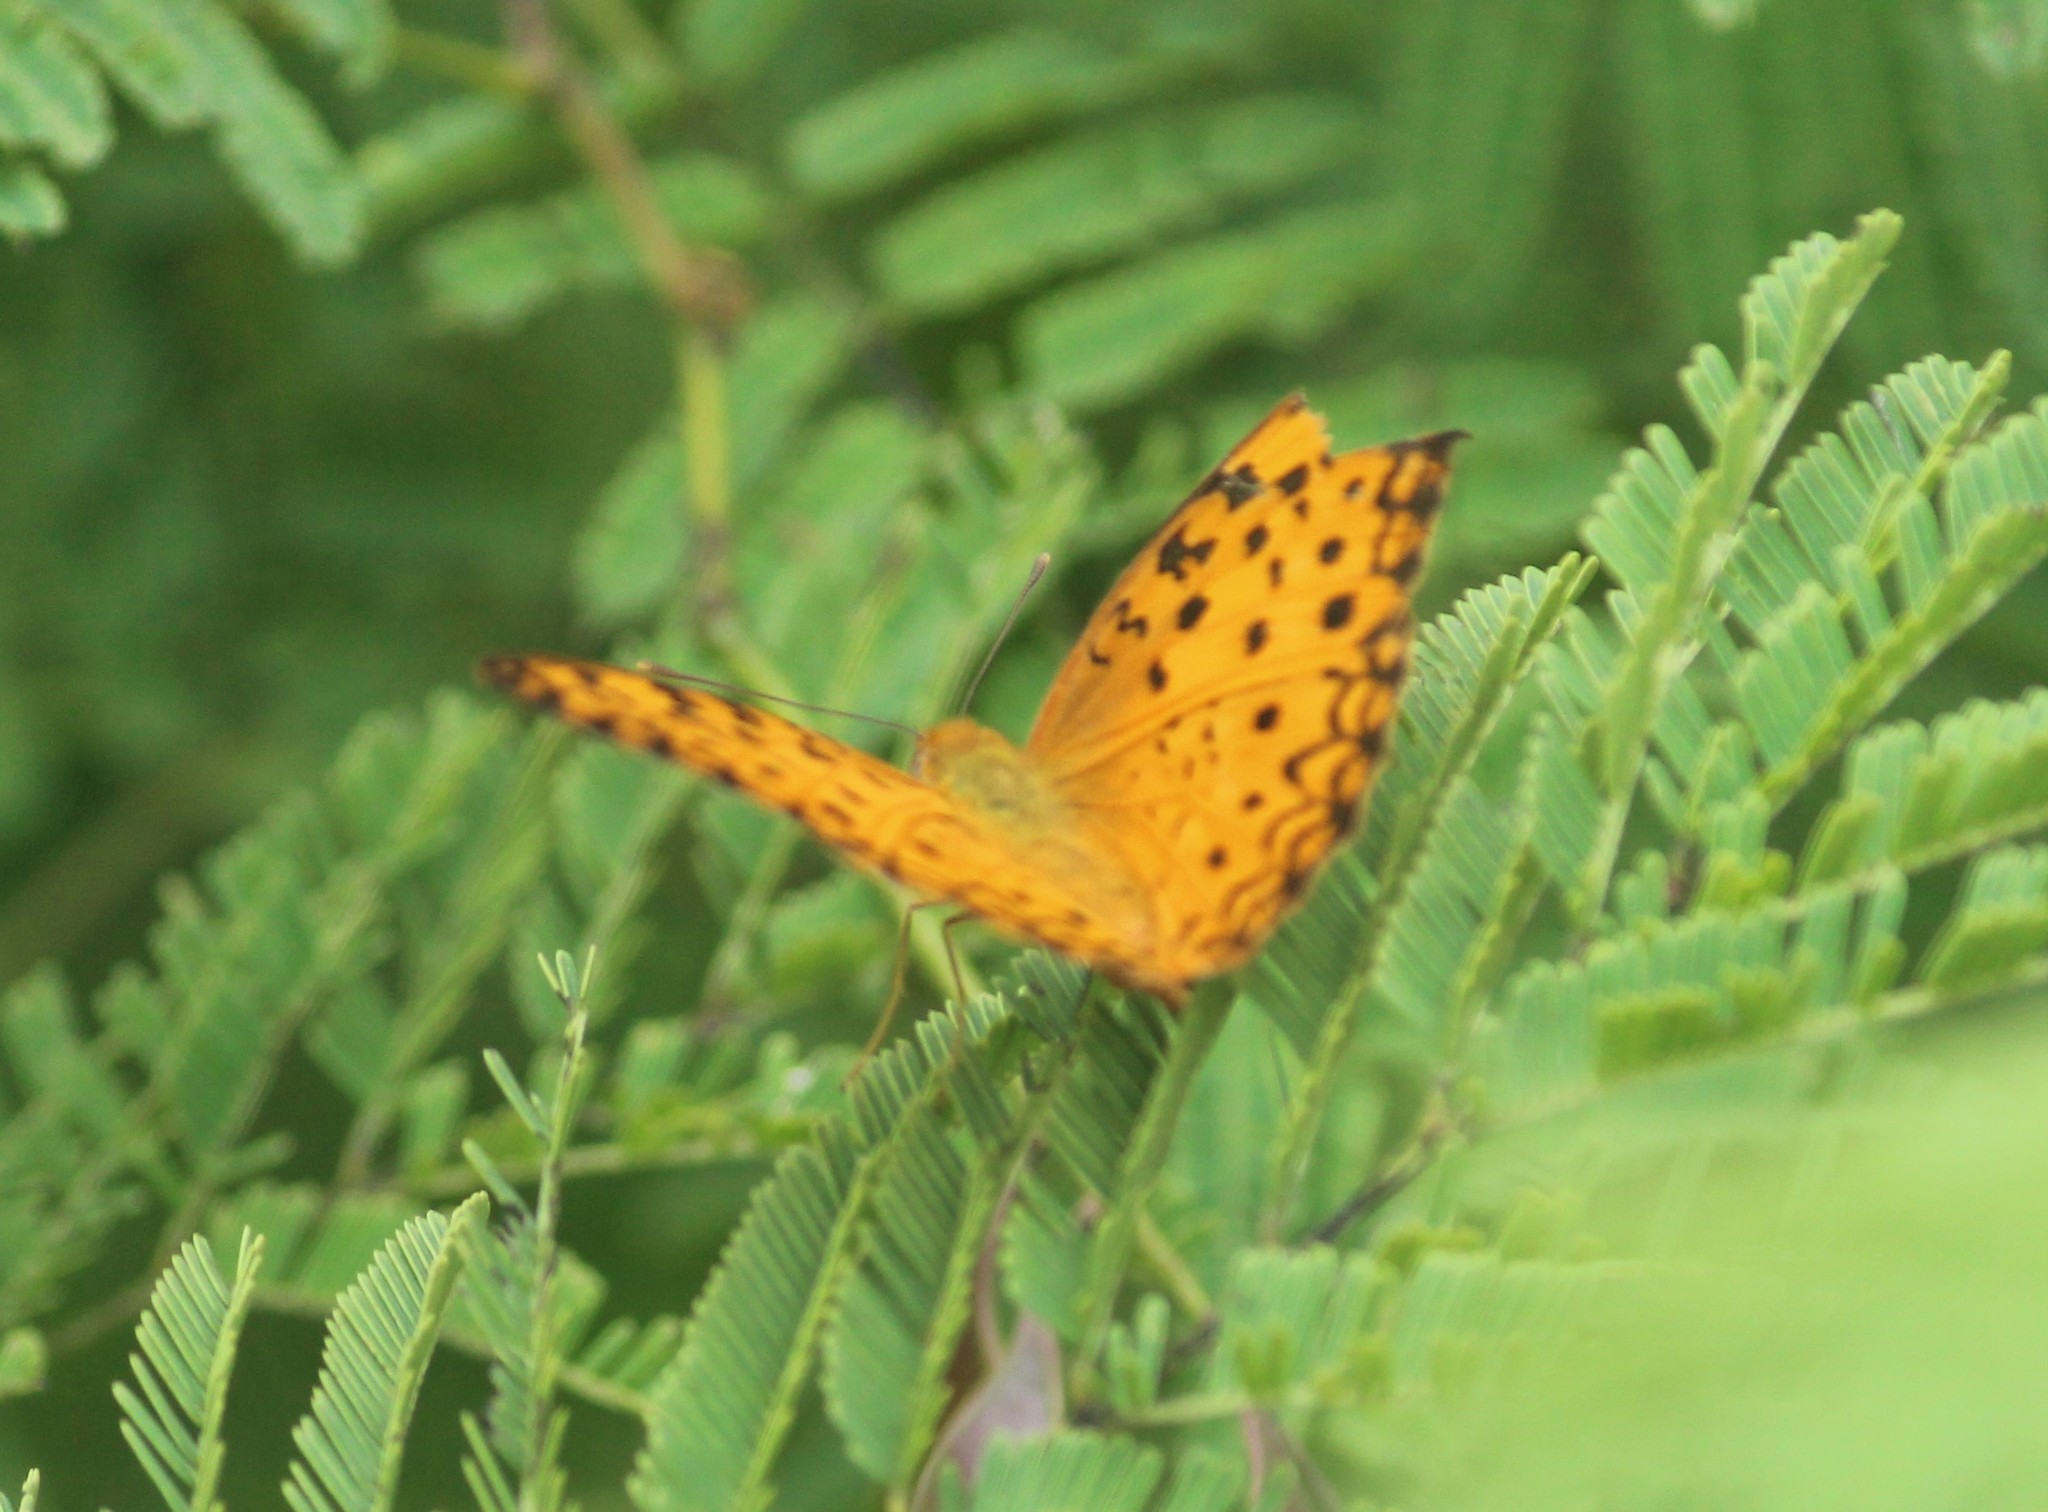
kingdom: Animalia
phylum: Arthropoda
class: Insecta
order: Lepidoptera
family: Nymphalidae
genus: Phalanta
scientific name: Phalanta phalantha
